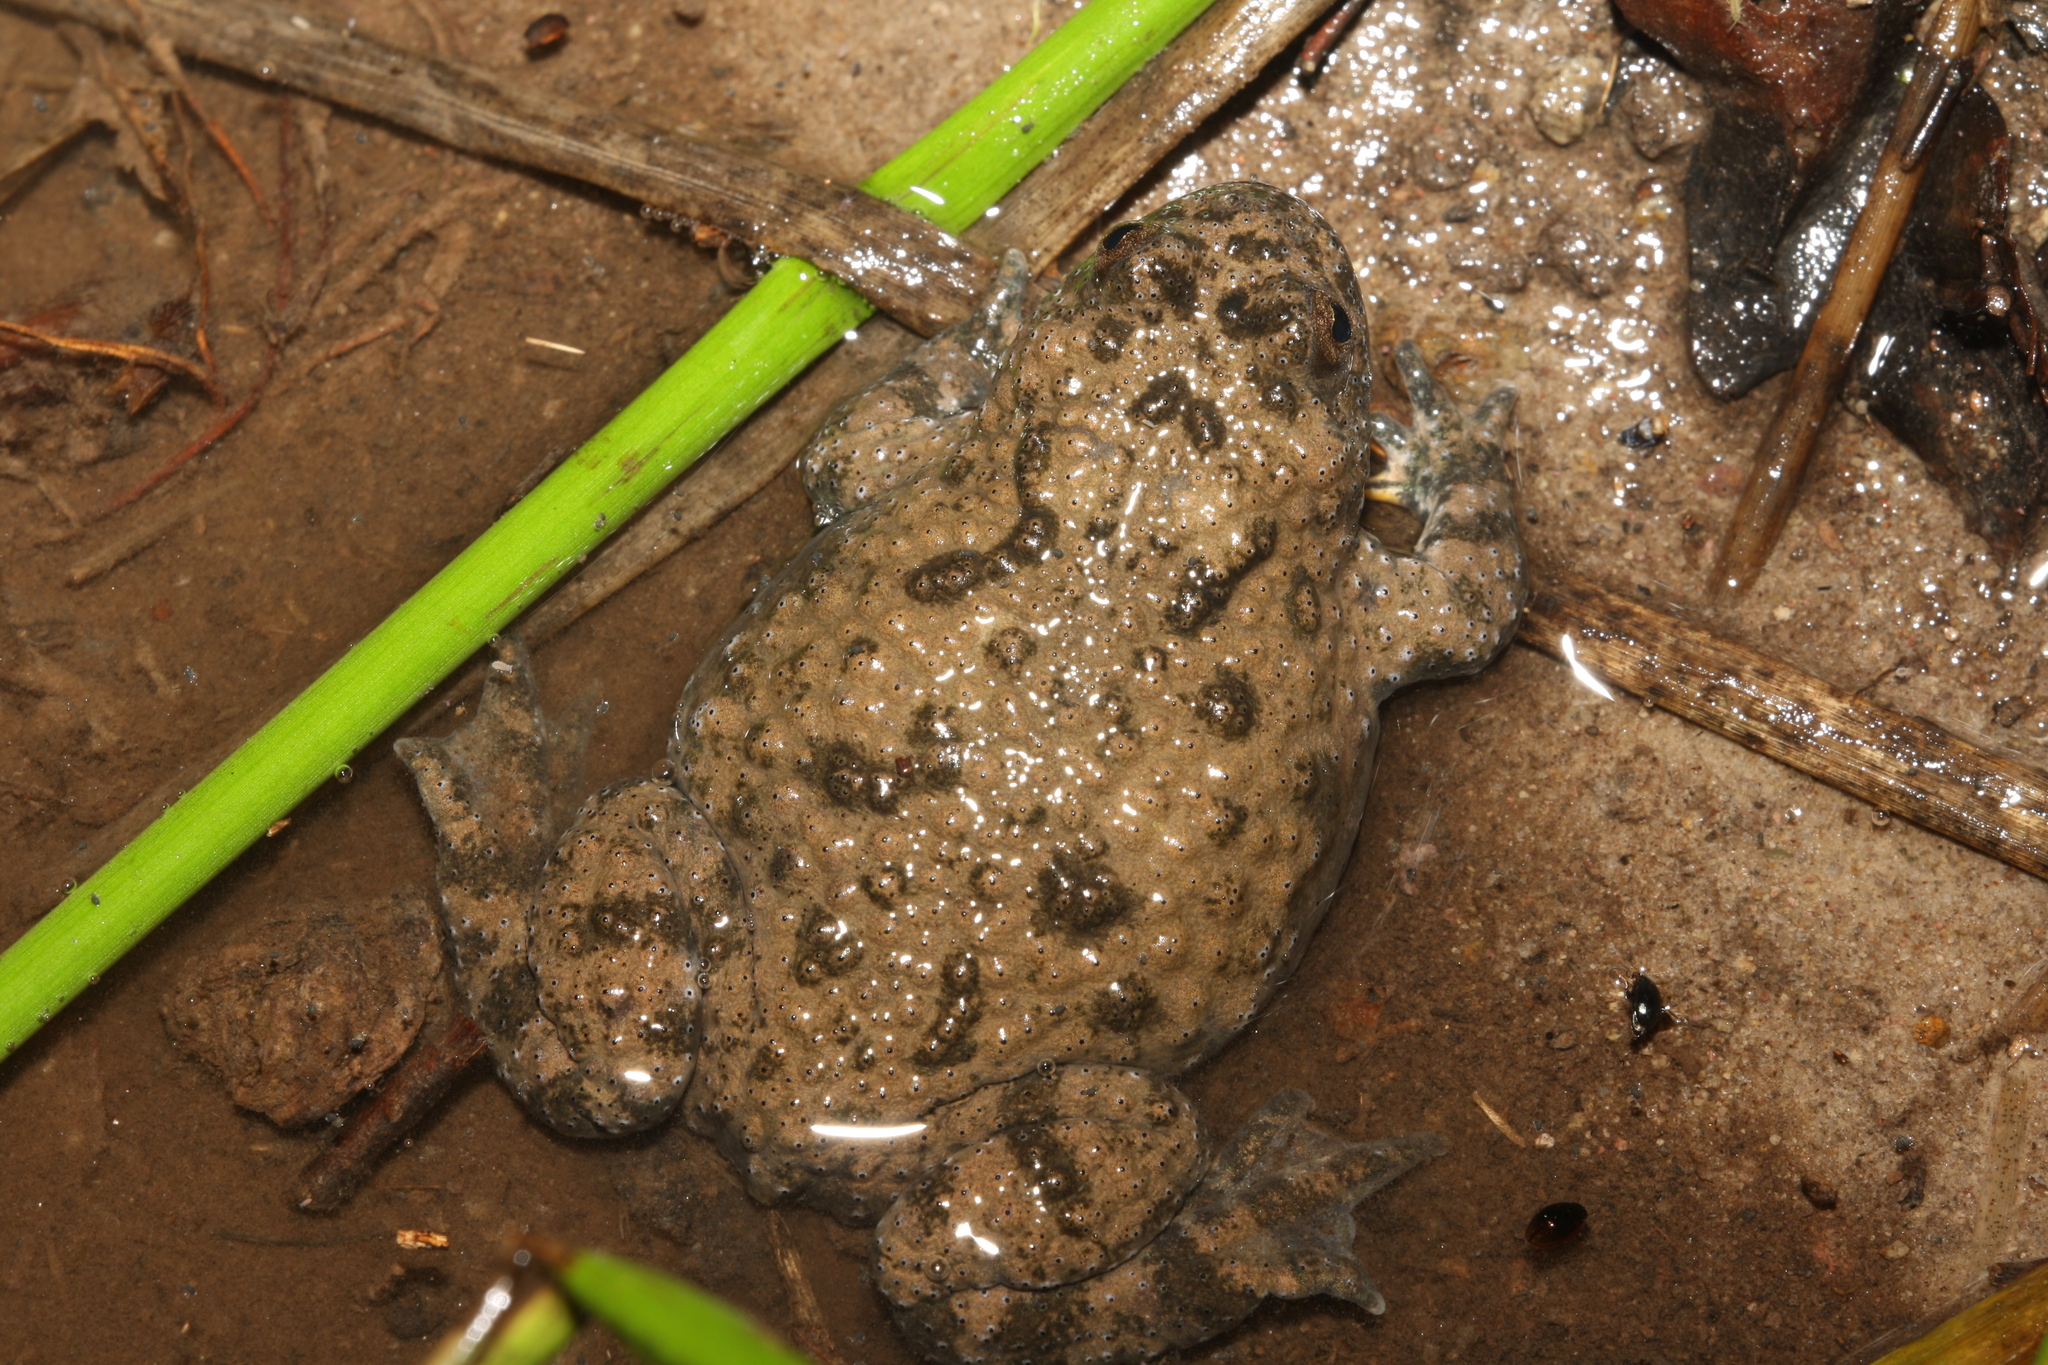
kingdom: Animalia
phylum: Chordata
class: Amphibia
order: Anura
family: Bombinatoridae
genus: Bombina
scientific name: Bombina variegata
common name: Yellow-bellied toad
